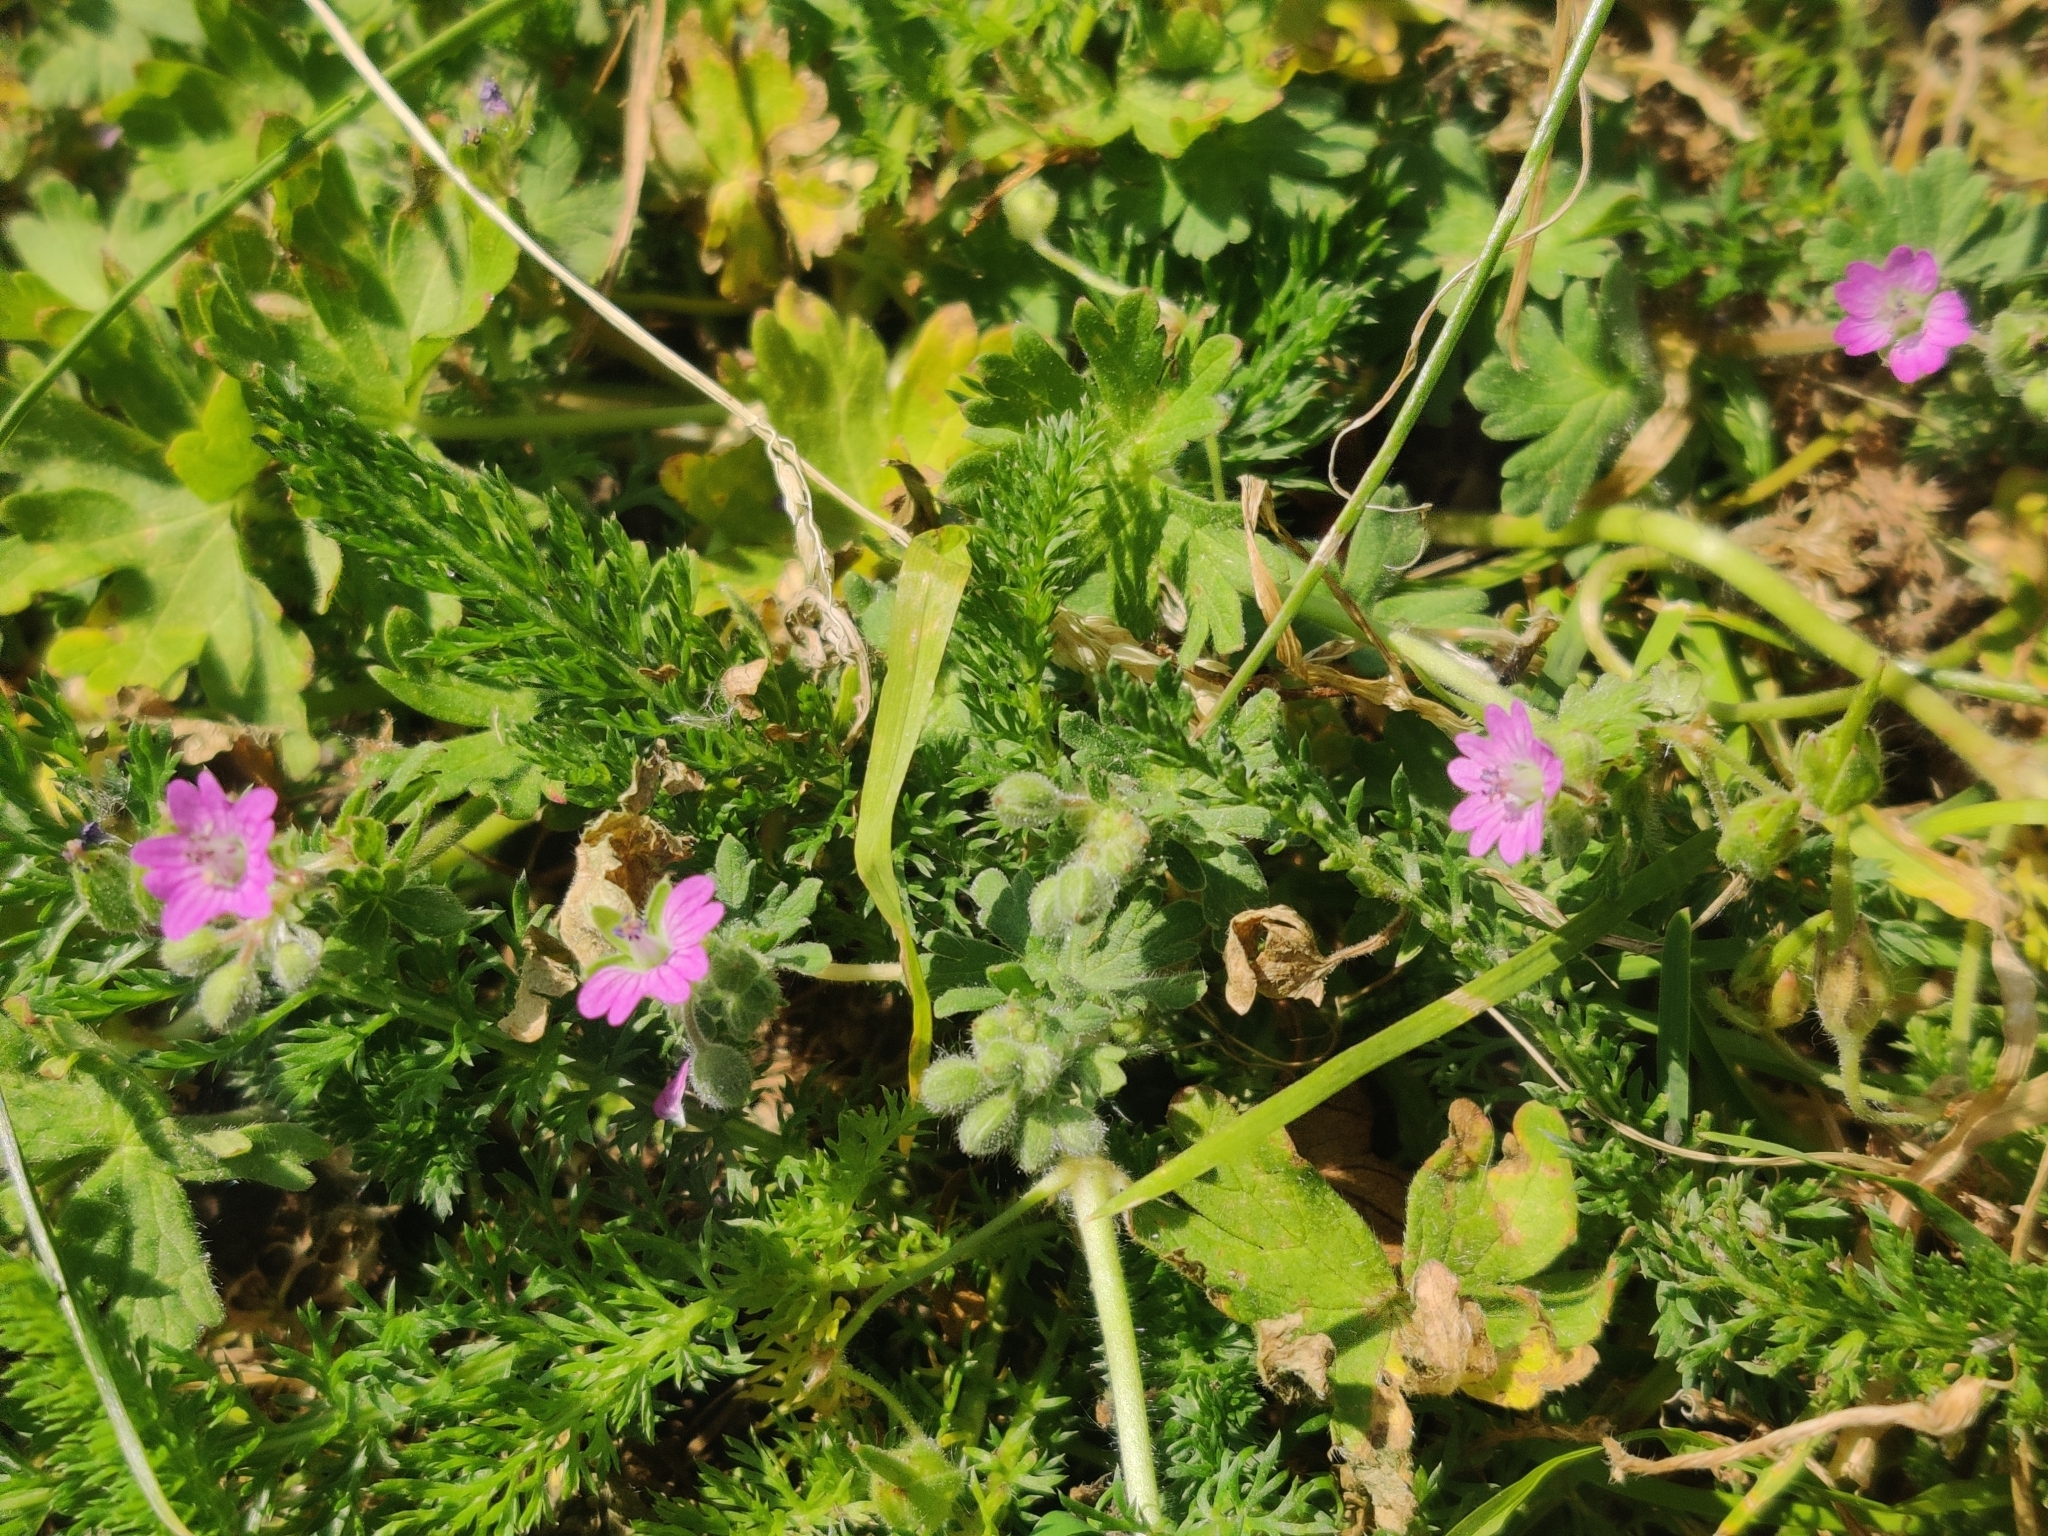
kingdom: Plantae
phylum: Tracheophyta
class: Magnoliopsida
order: Geraniales
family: Geraniaceae
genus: Geranium
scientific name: Geranium molle
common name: Dove's-foot crane's-bill
